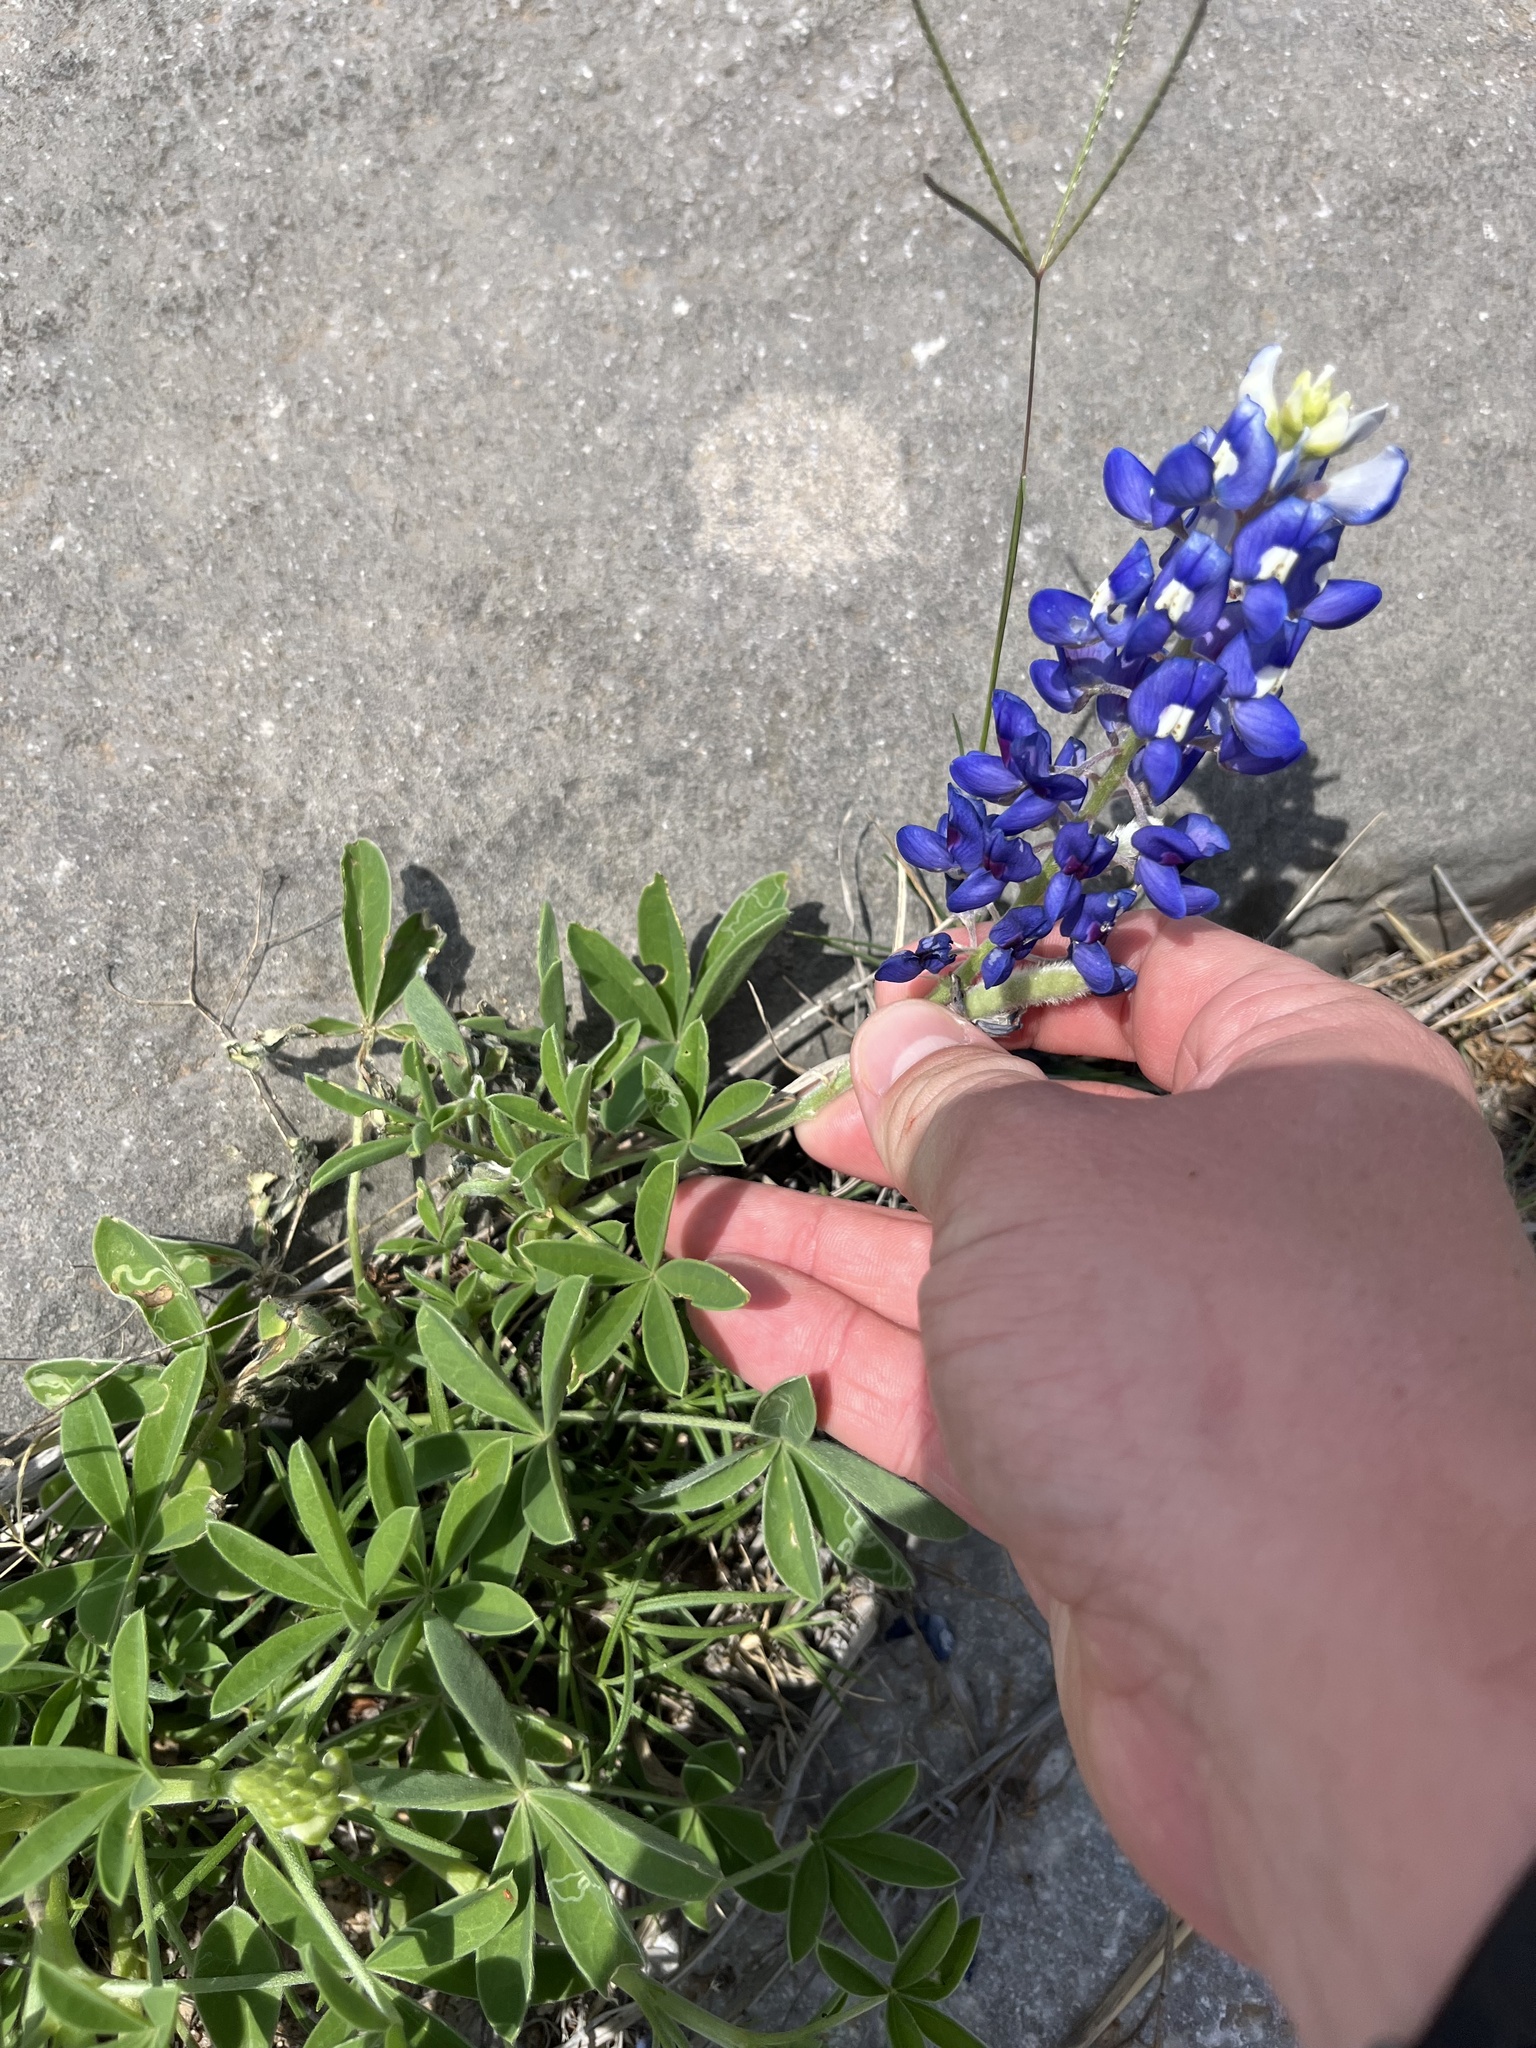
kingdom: Plantae
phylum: Tracheophyta
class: Magnoliopsida
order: Fabales
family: Fabaceae
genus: Lupinus
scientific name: Lupinus texensis
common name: Texas bluebonnet
